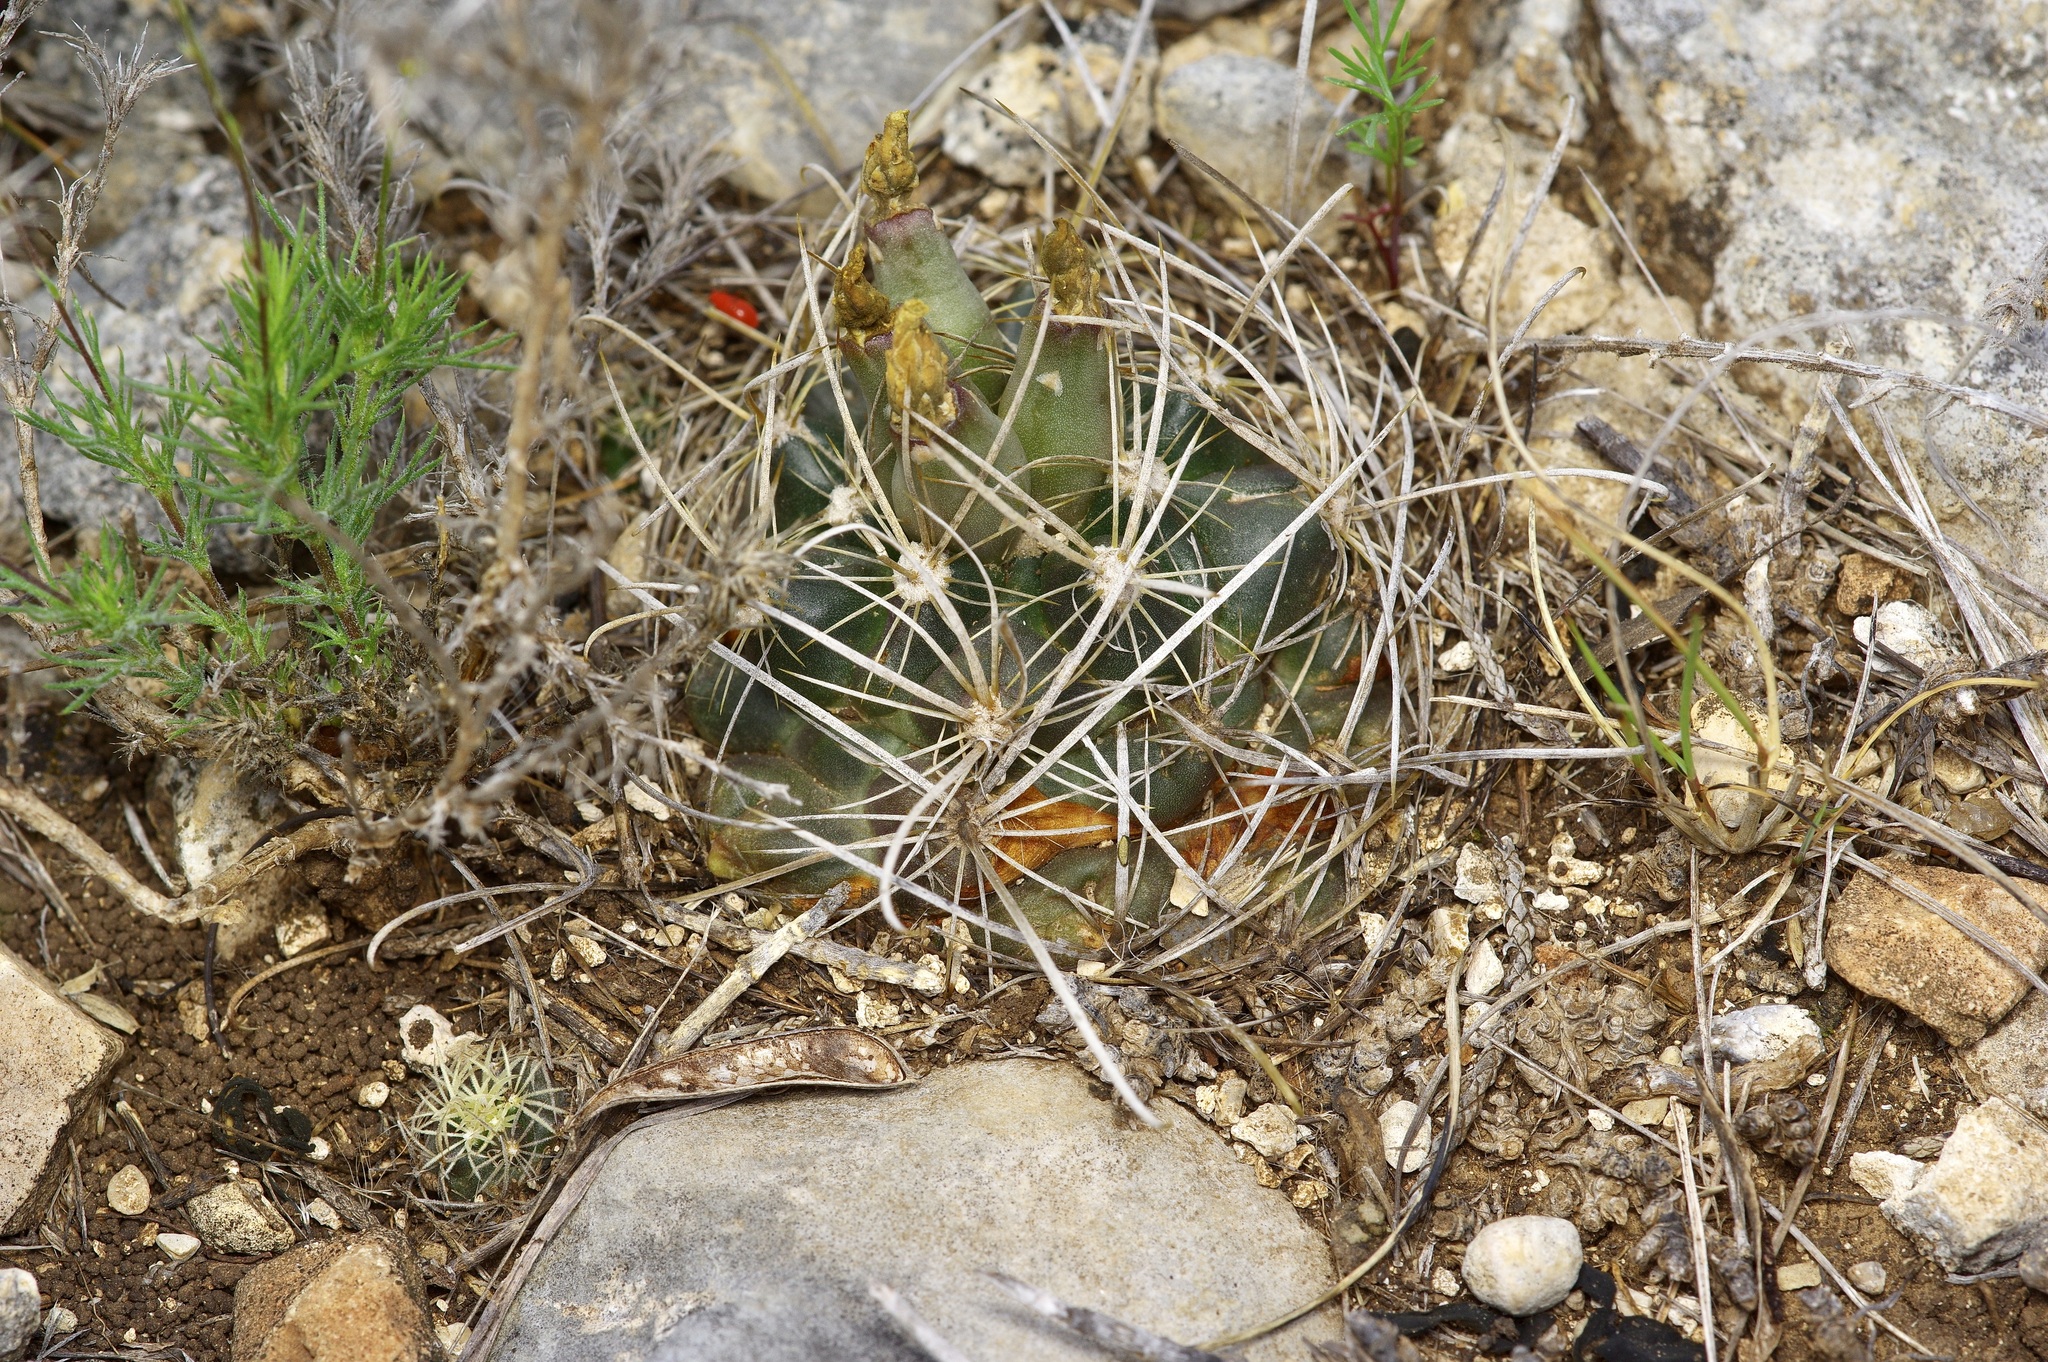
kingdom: Plantae
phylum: Tracheophyta
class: Magnoliopsida
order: Caryophyllales
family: Cactaceae
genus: Sclerocactus
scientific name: Sclerocactus brevihamatus
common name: Engelmann's fishhook cactus
